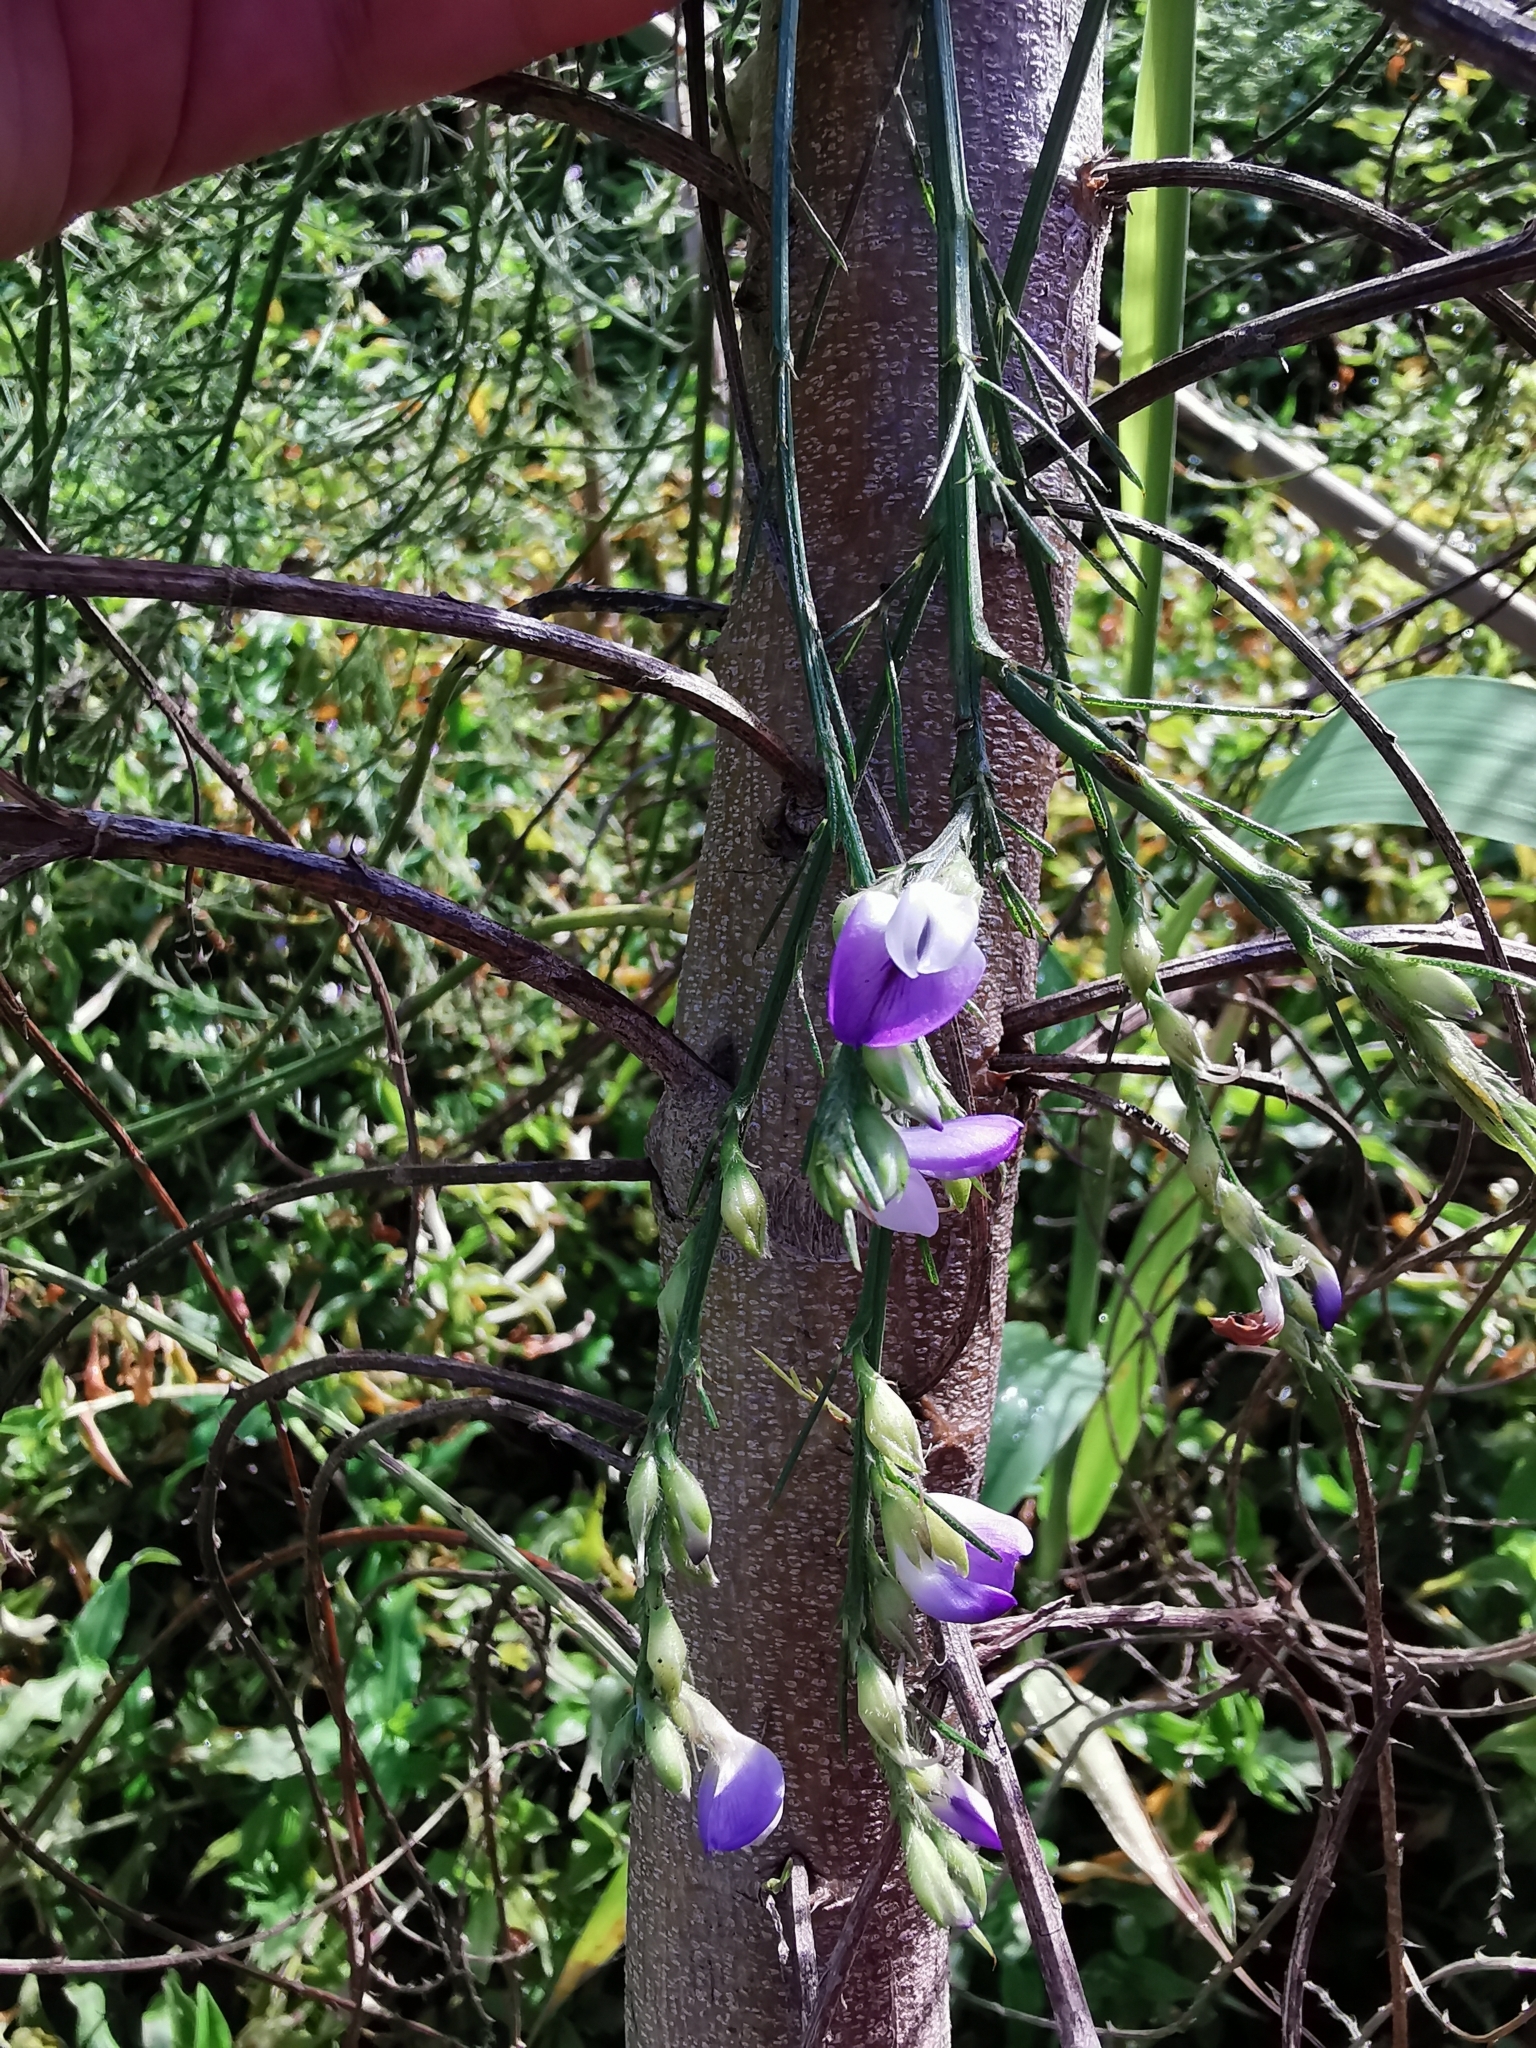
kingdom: Plantae
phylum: Tracheophyta
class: Magnoliopsida
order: Fabales
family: Fabaceae
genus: Psoralea
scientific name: Psoralea filifolia
